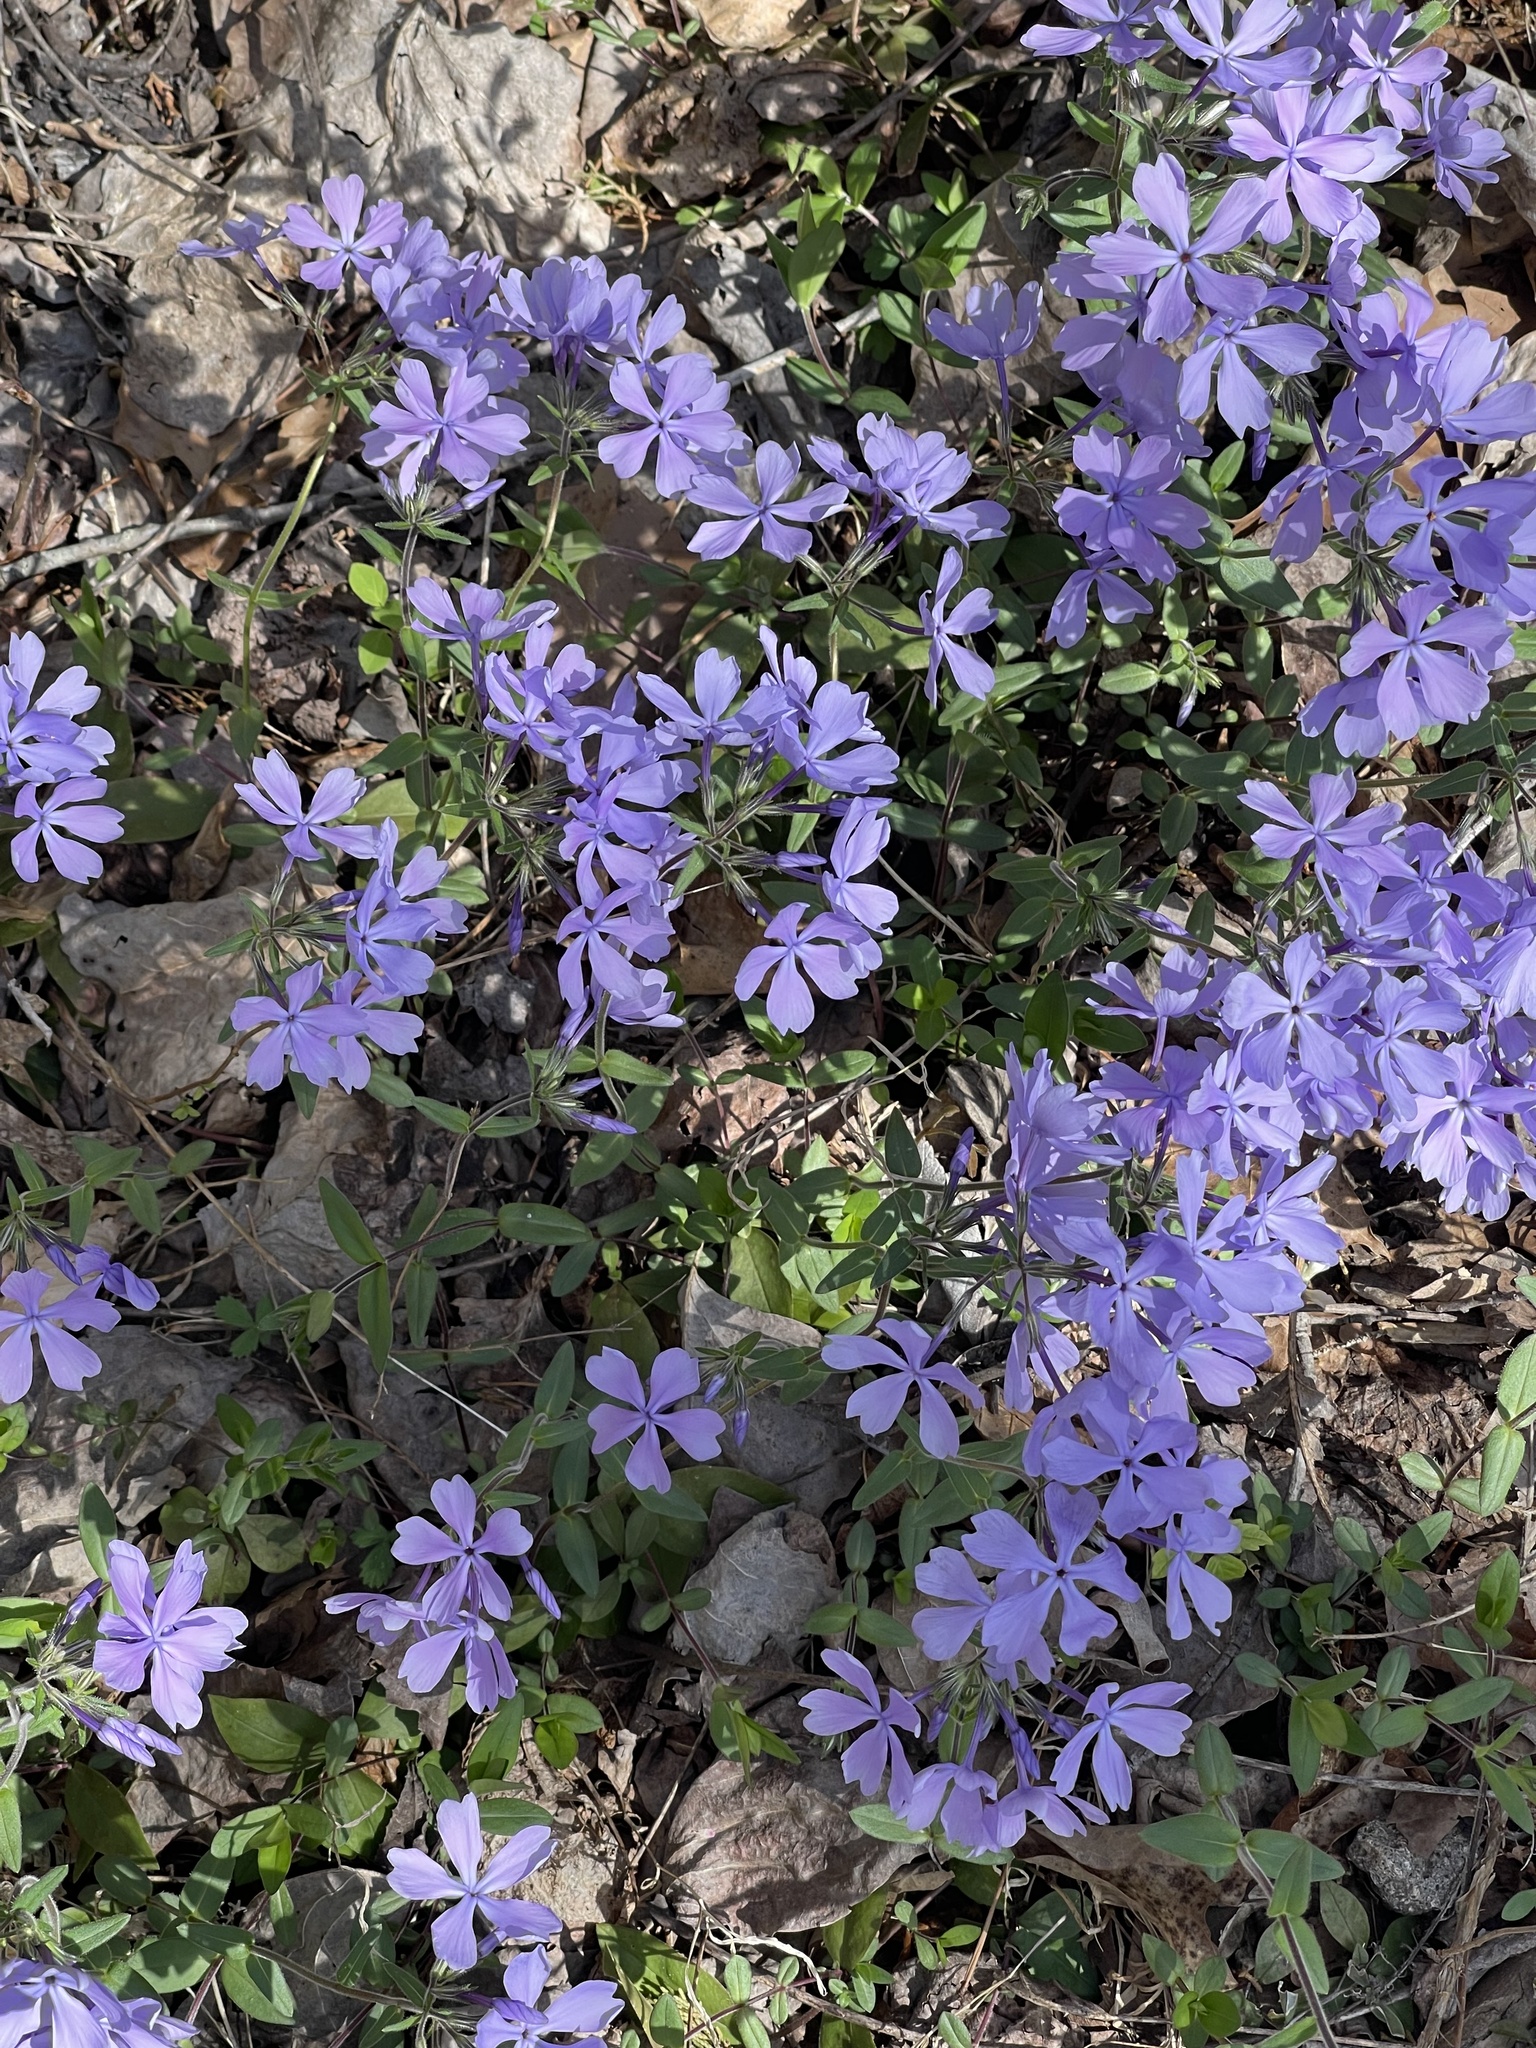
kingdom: Plantae
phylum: Tracheophyta
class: Magnoliopsida
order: Ericales
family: Polemoniaceae
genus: Phlox
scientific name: Phlox divaricata
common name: Blue phlox
